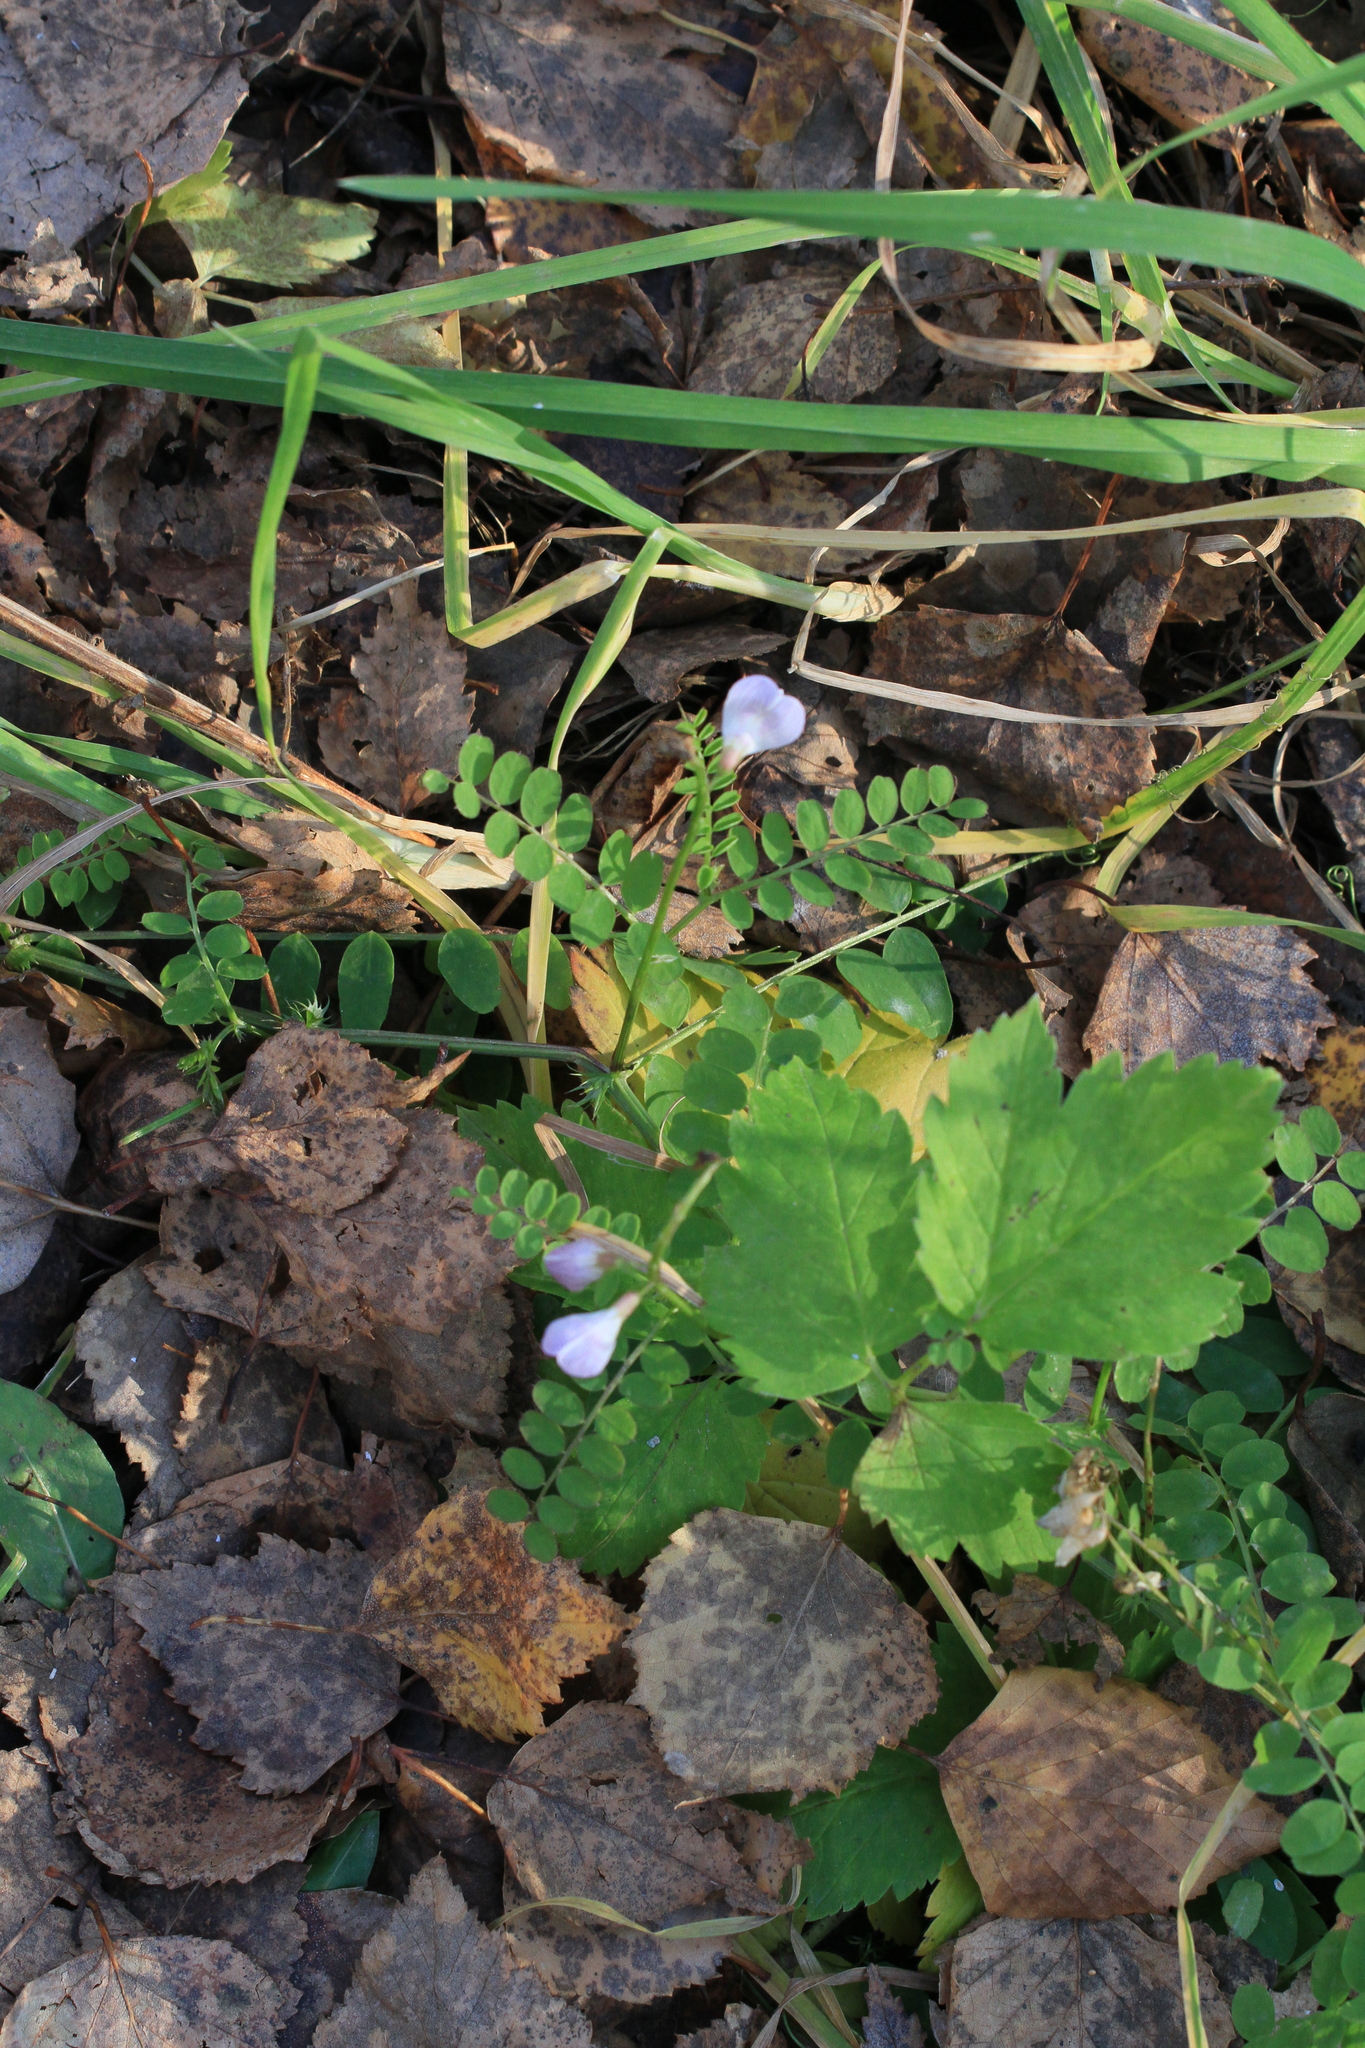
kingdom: Plantae
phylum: Tracheophyta
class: Magnoliopsida
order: Fabales
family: Fabaceae
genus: Vicia
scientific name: Vicia sylvatica
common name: Wood vetch
